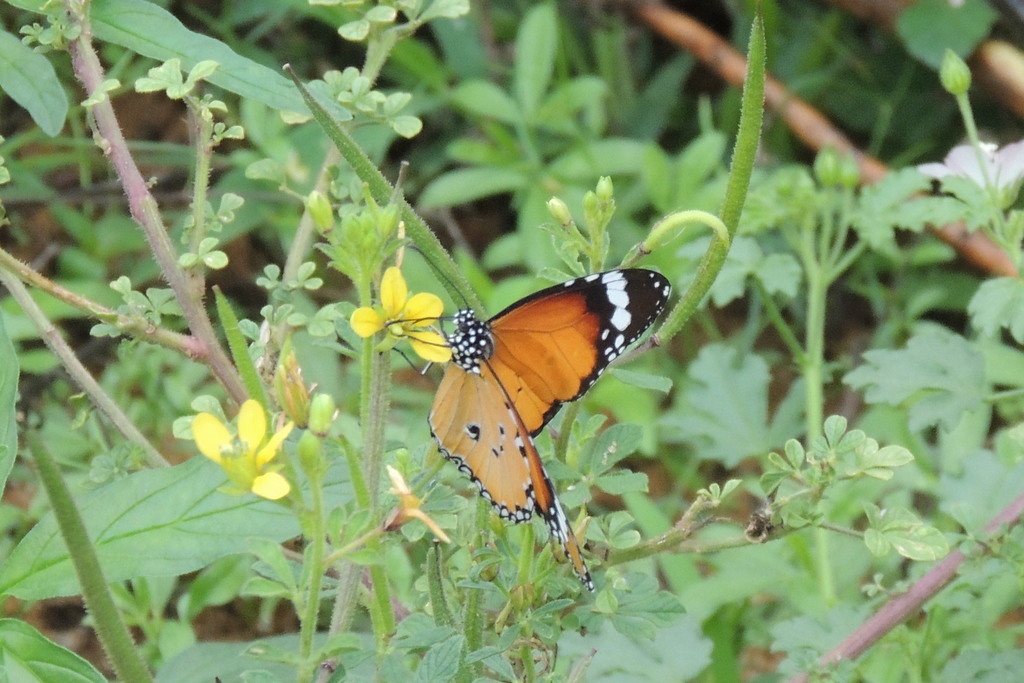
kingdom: Animalia
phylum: Arthropoda
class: Insecta
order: Lepidoptera
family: Nymphalidae
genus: Danaus
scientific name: Danaus chrysippus
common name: Plain tiger
